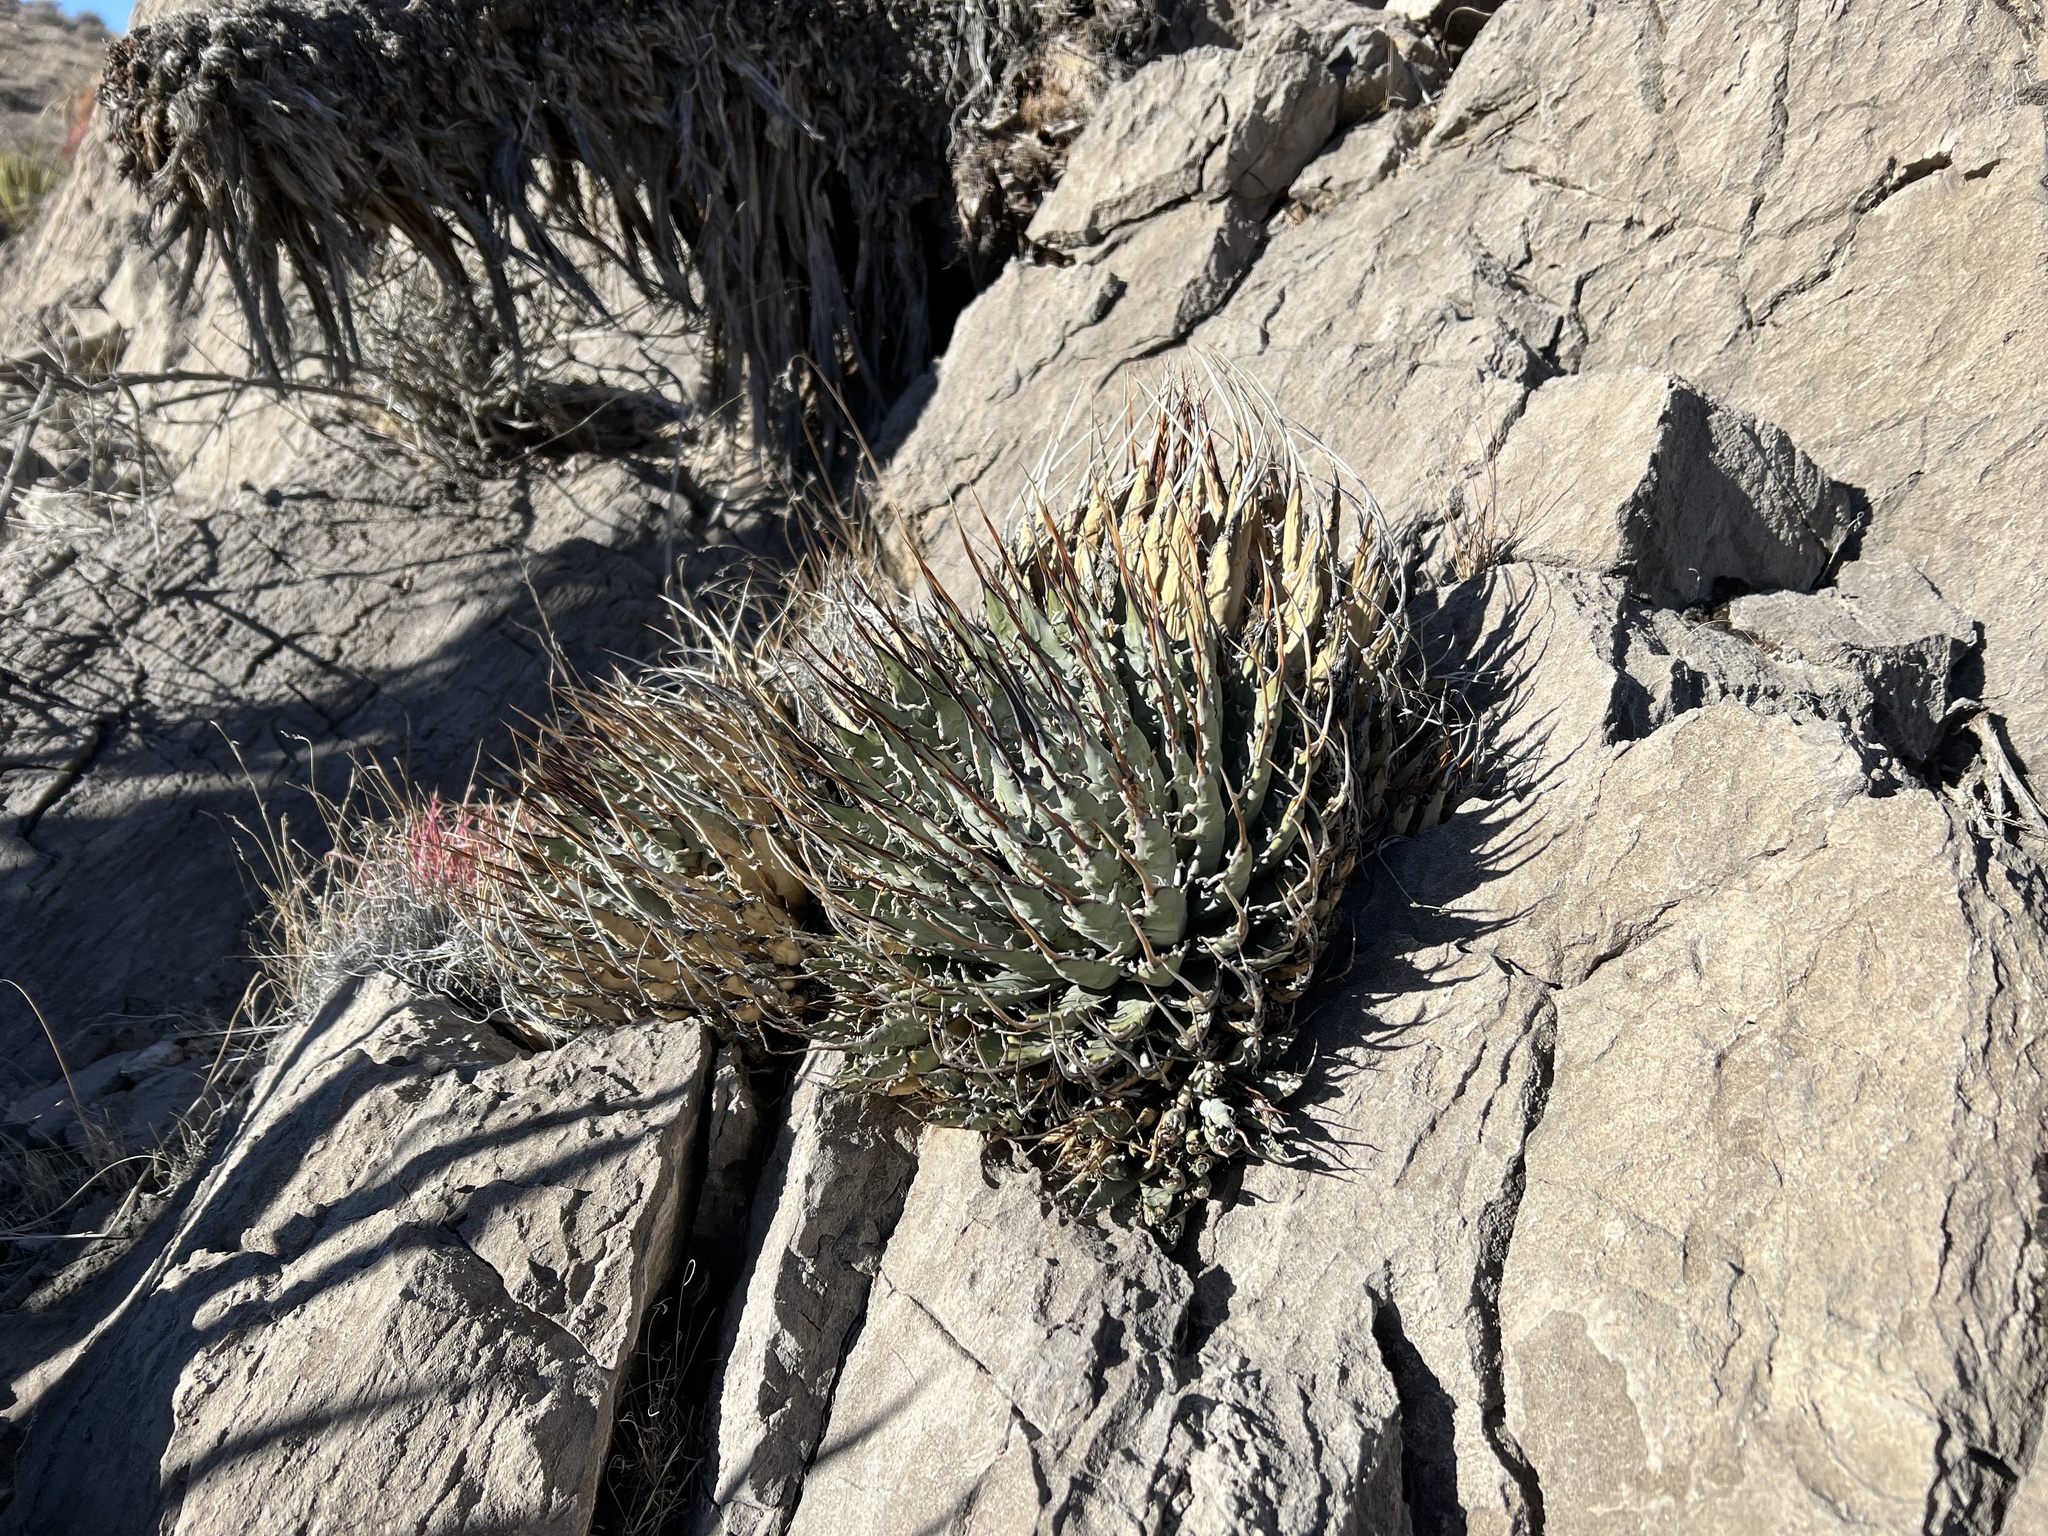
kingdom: Plantae
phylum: Tracheophyta
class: Liliopsida
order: Asparagales
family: Asparagaceae
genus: Agave
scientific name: Agave utahensis
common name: Utah agave
